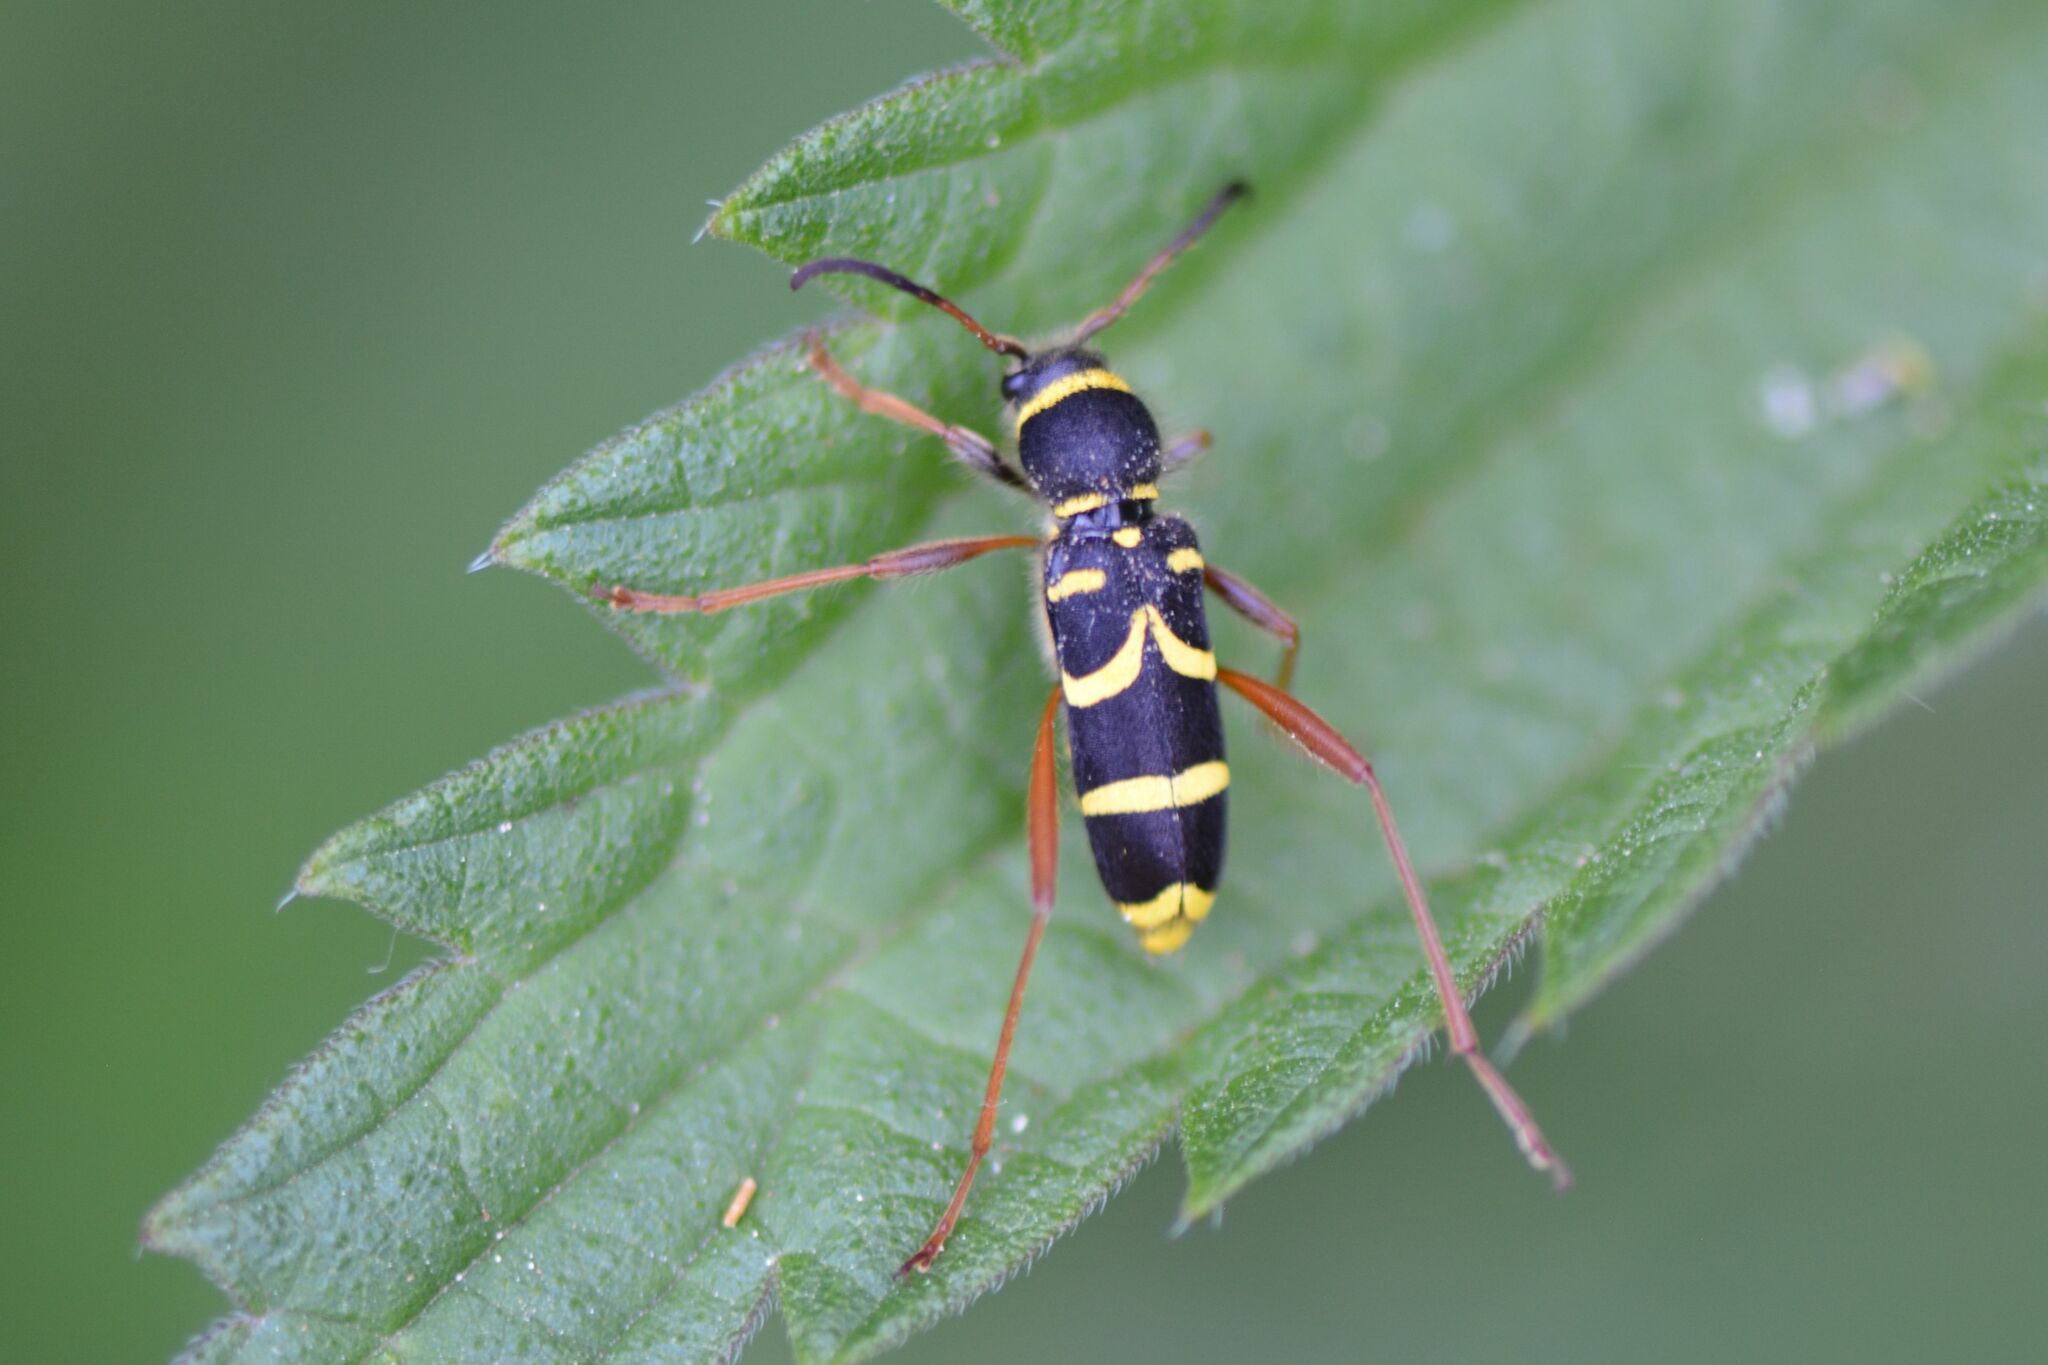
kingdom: Animalia
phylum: Arthropoda
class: Insecta
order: Coleoptera
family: Cerambycidae
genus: Clytus
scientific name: Clytus arietis
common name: Wasp beetle
